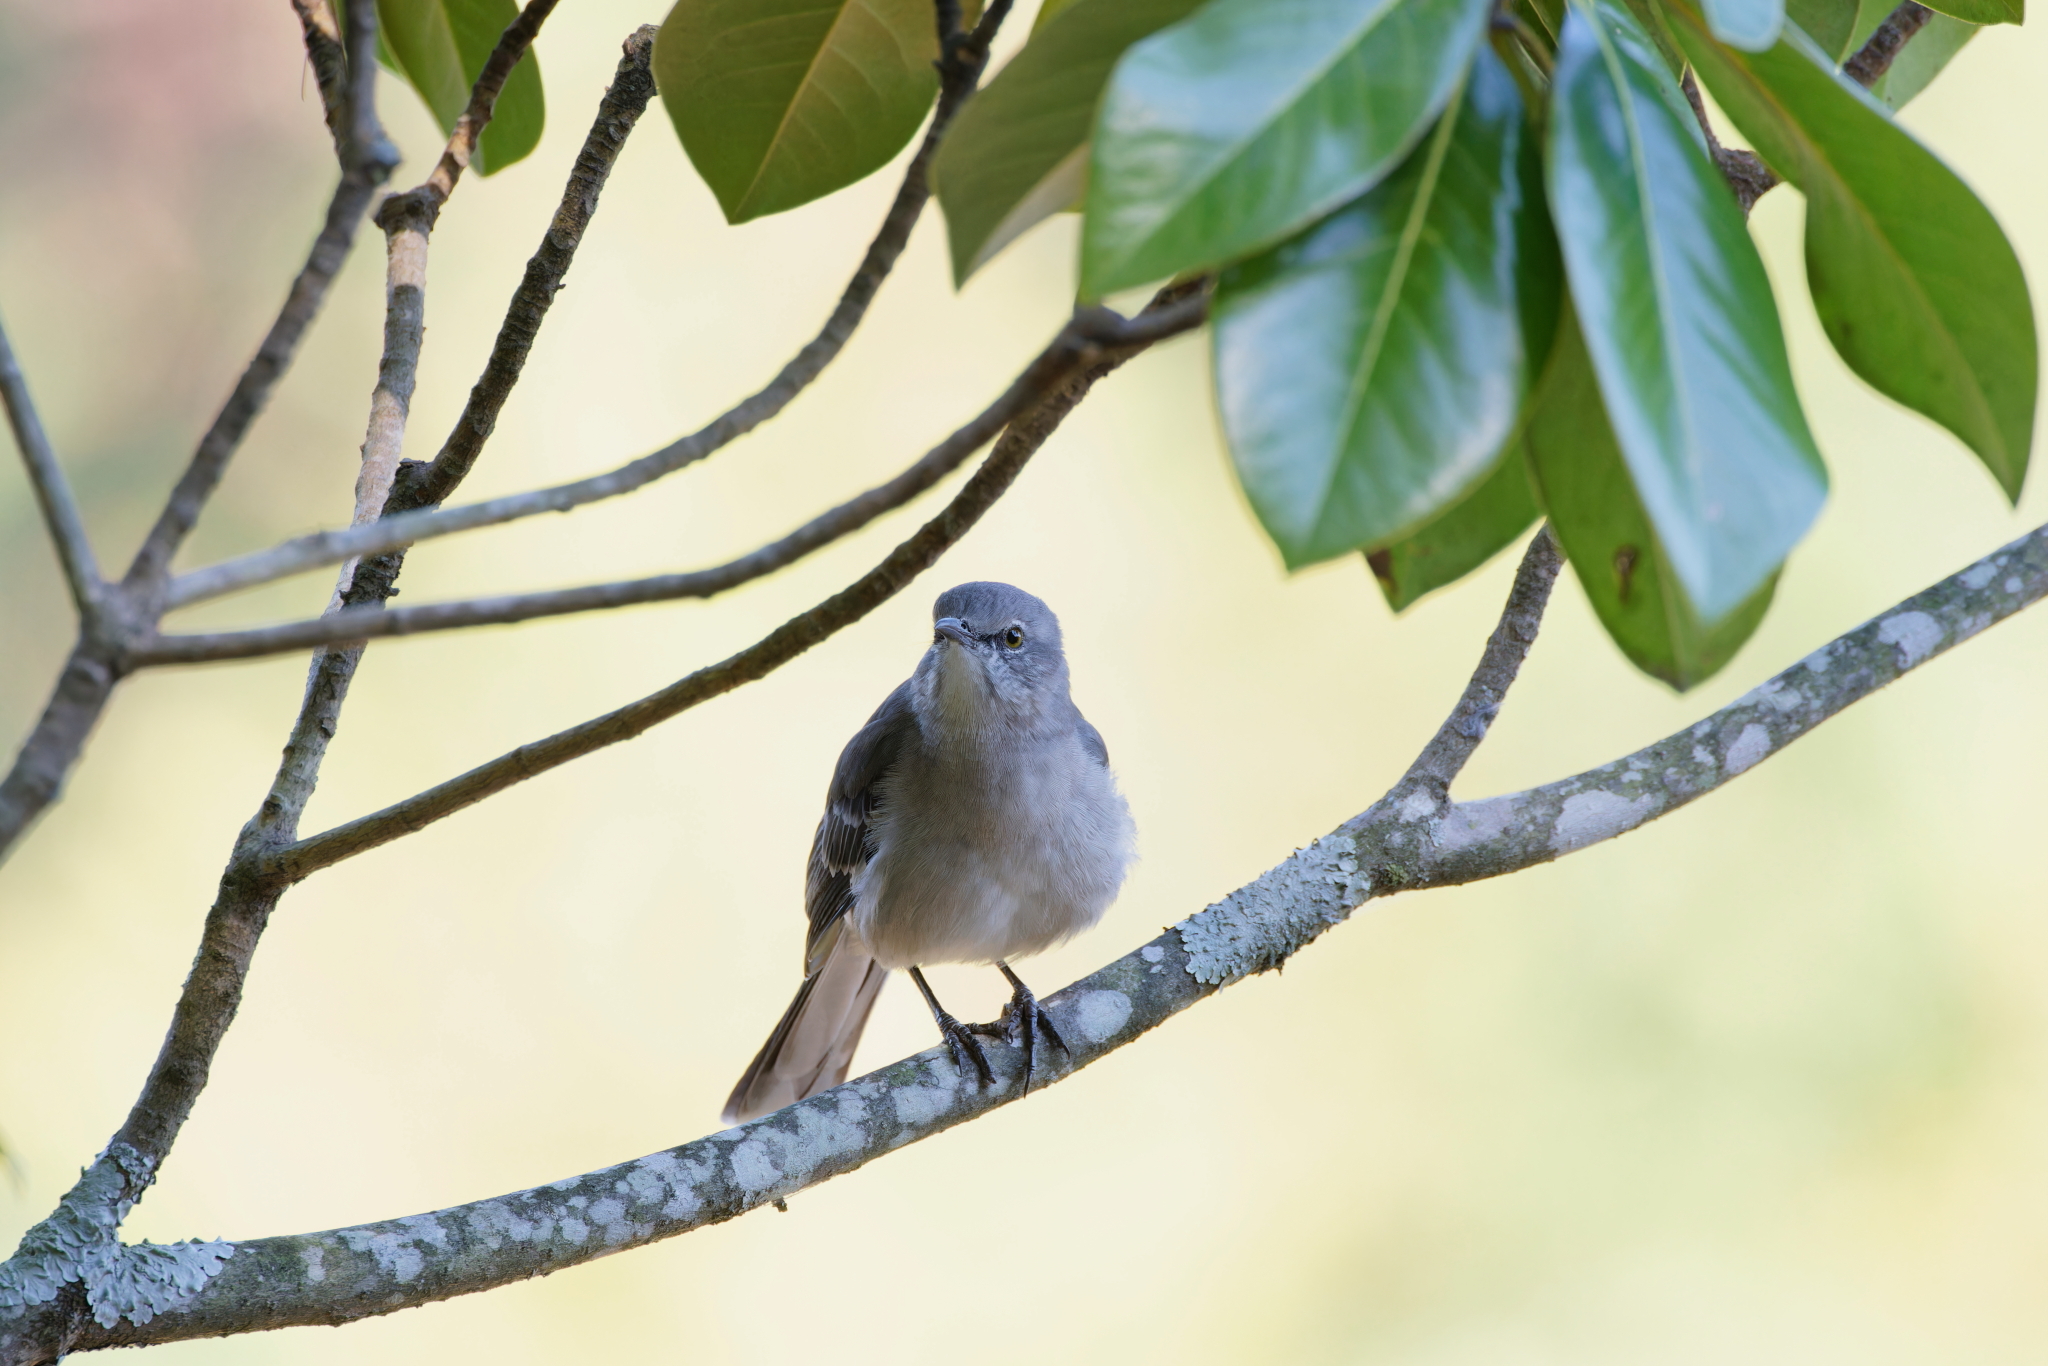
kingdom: Animalia
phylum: Chordata
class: Aves
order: Passeriformes
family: Mimidae
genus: Mimus
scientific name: Mimus polyglottos
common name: Northern mockingbird
